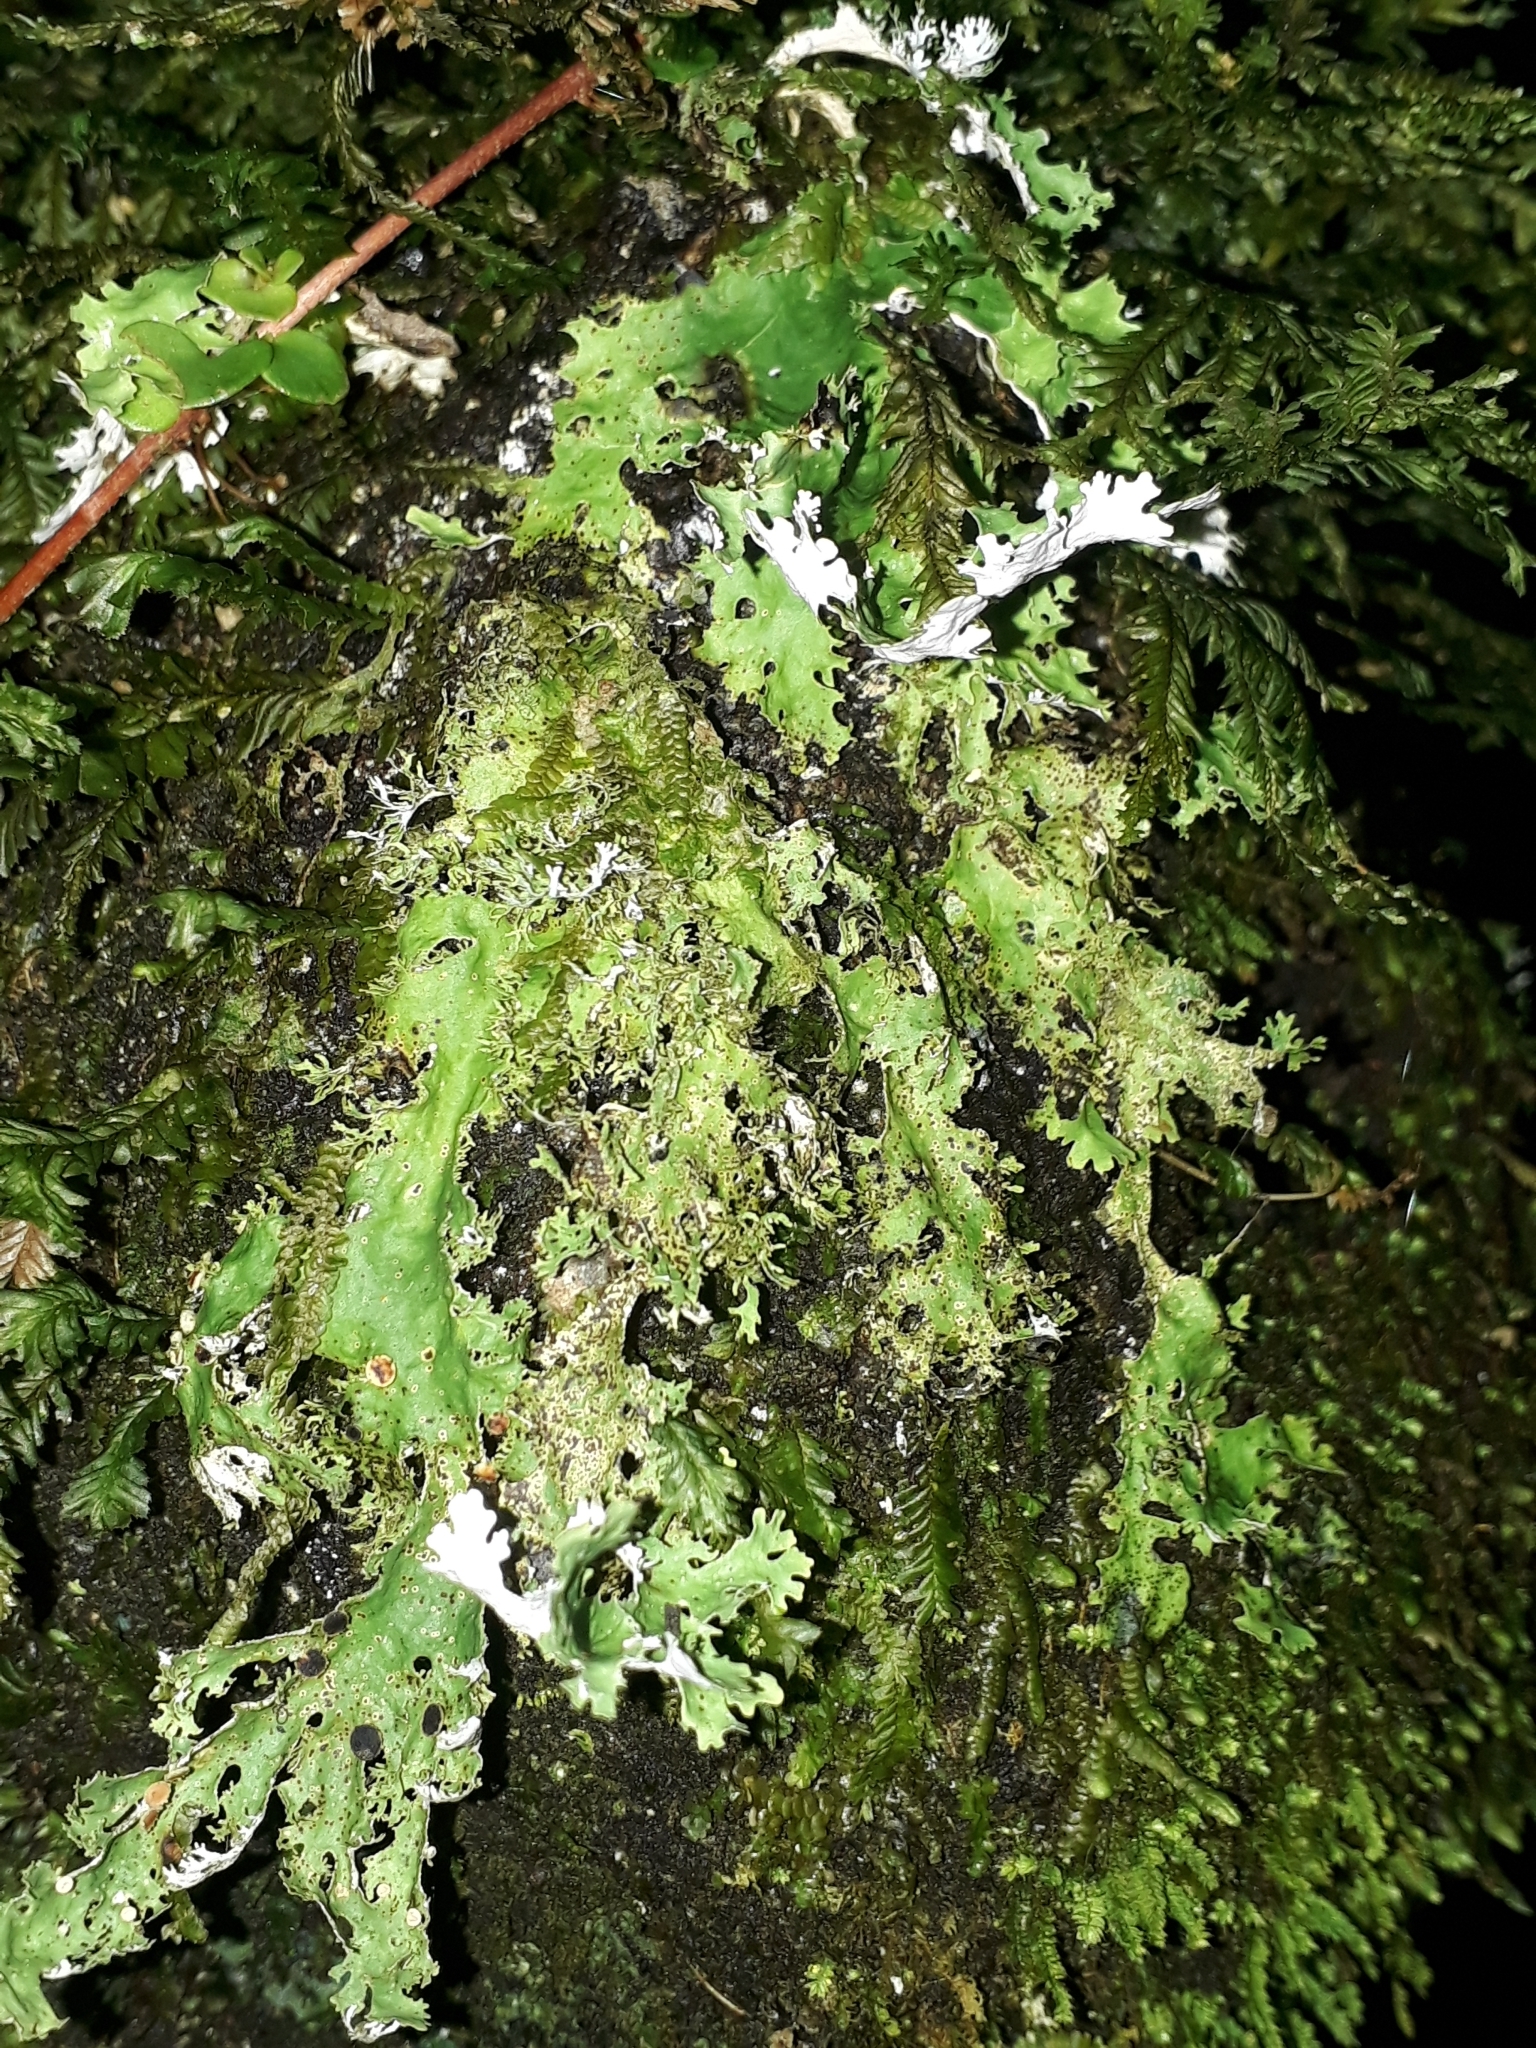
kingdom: Fungi
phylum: Ascomycota
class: Lecanoromycetes
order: Peltigerales
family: Lobariaceae
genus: Pseudocyphellaria
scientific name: Pseudocyphellaria chloroleuca
